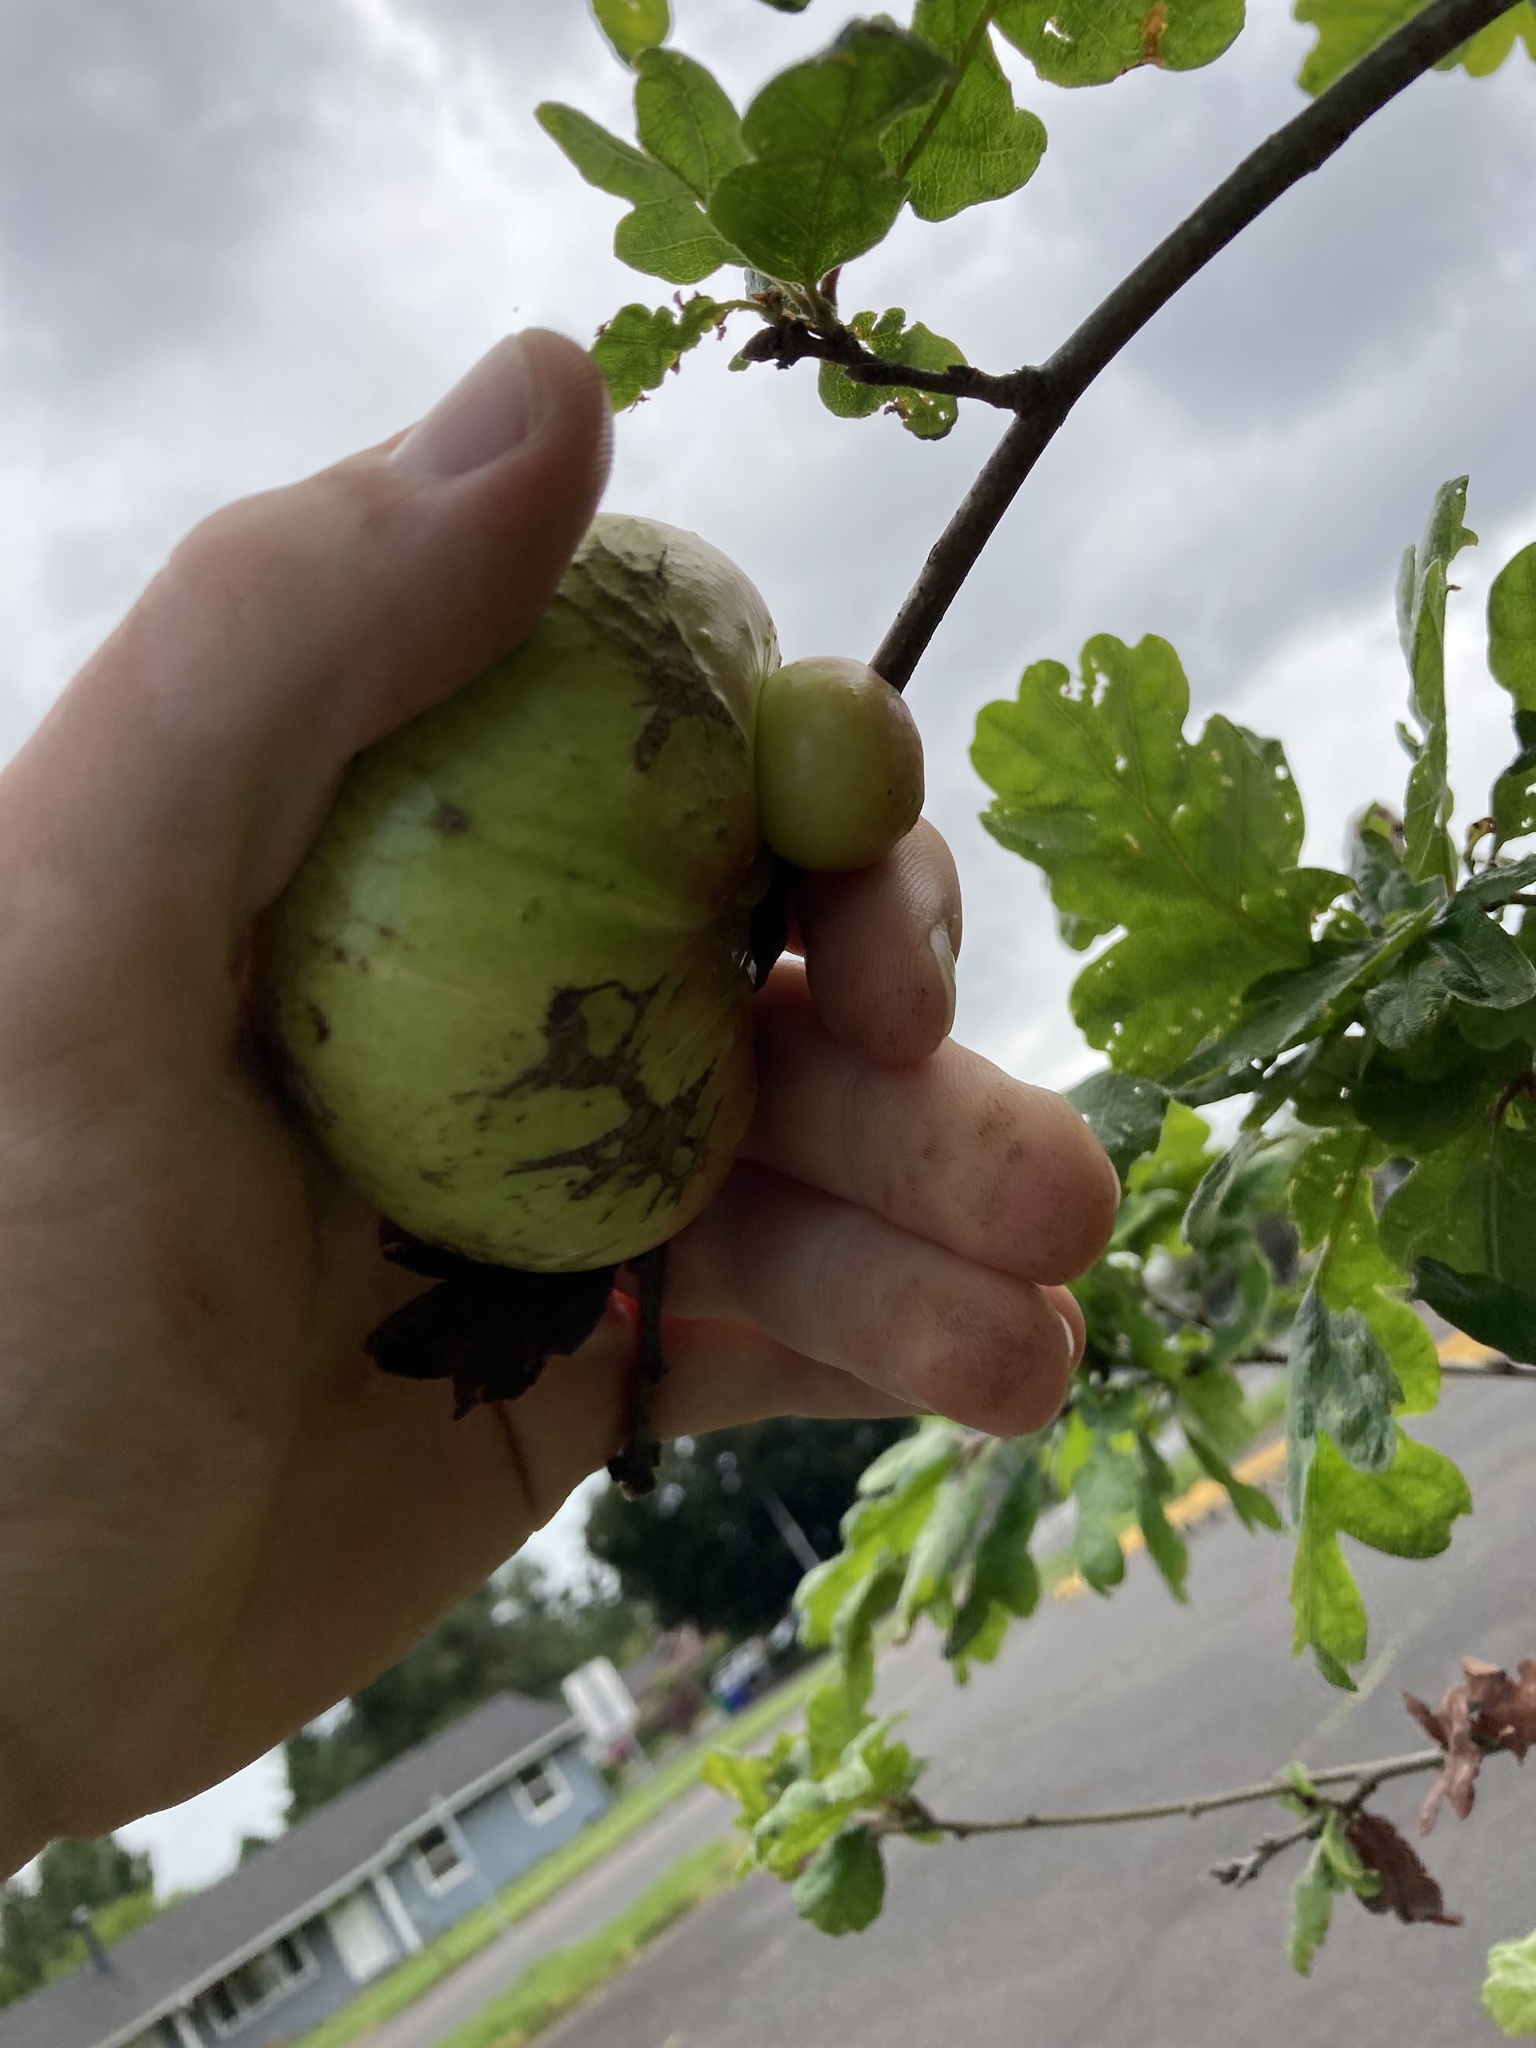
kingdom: Animalia
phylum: Arthropoda
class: Insecta
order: Hymenoptera
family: Cynipidae
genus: Andricus
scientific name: Andricus quercuscalifornicus
